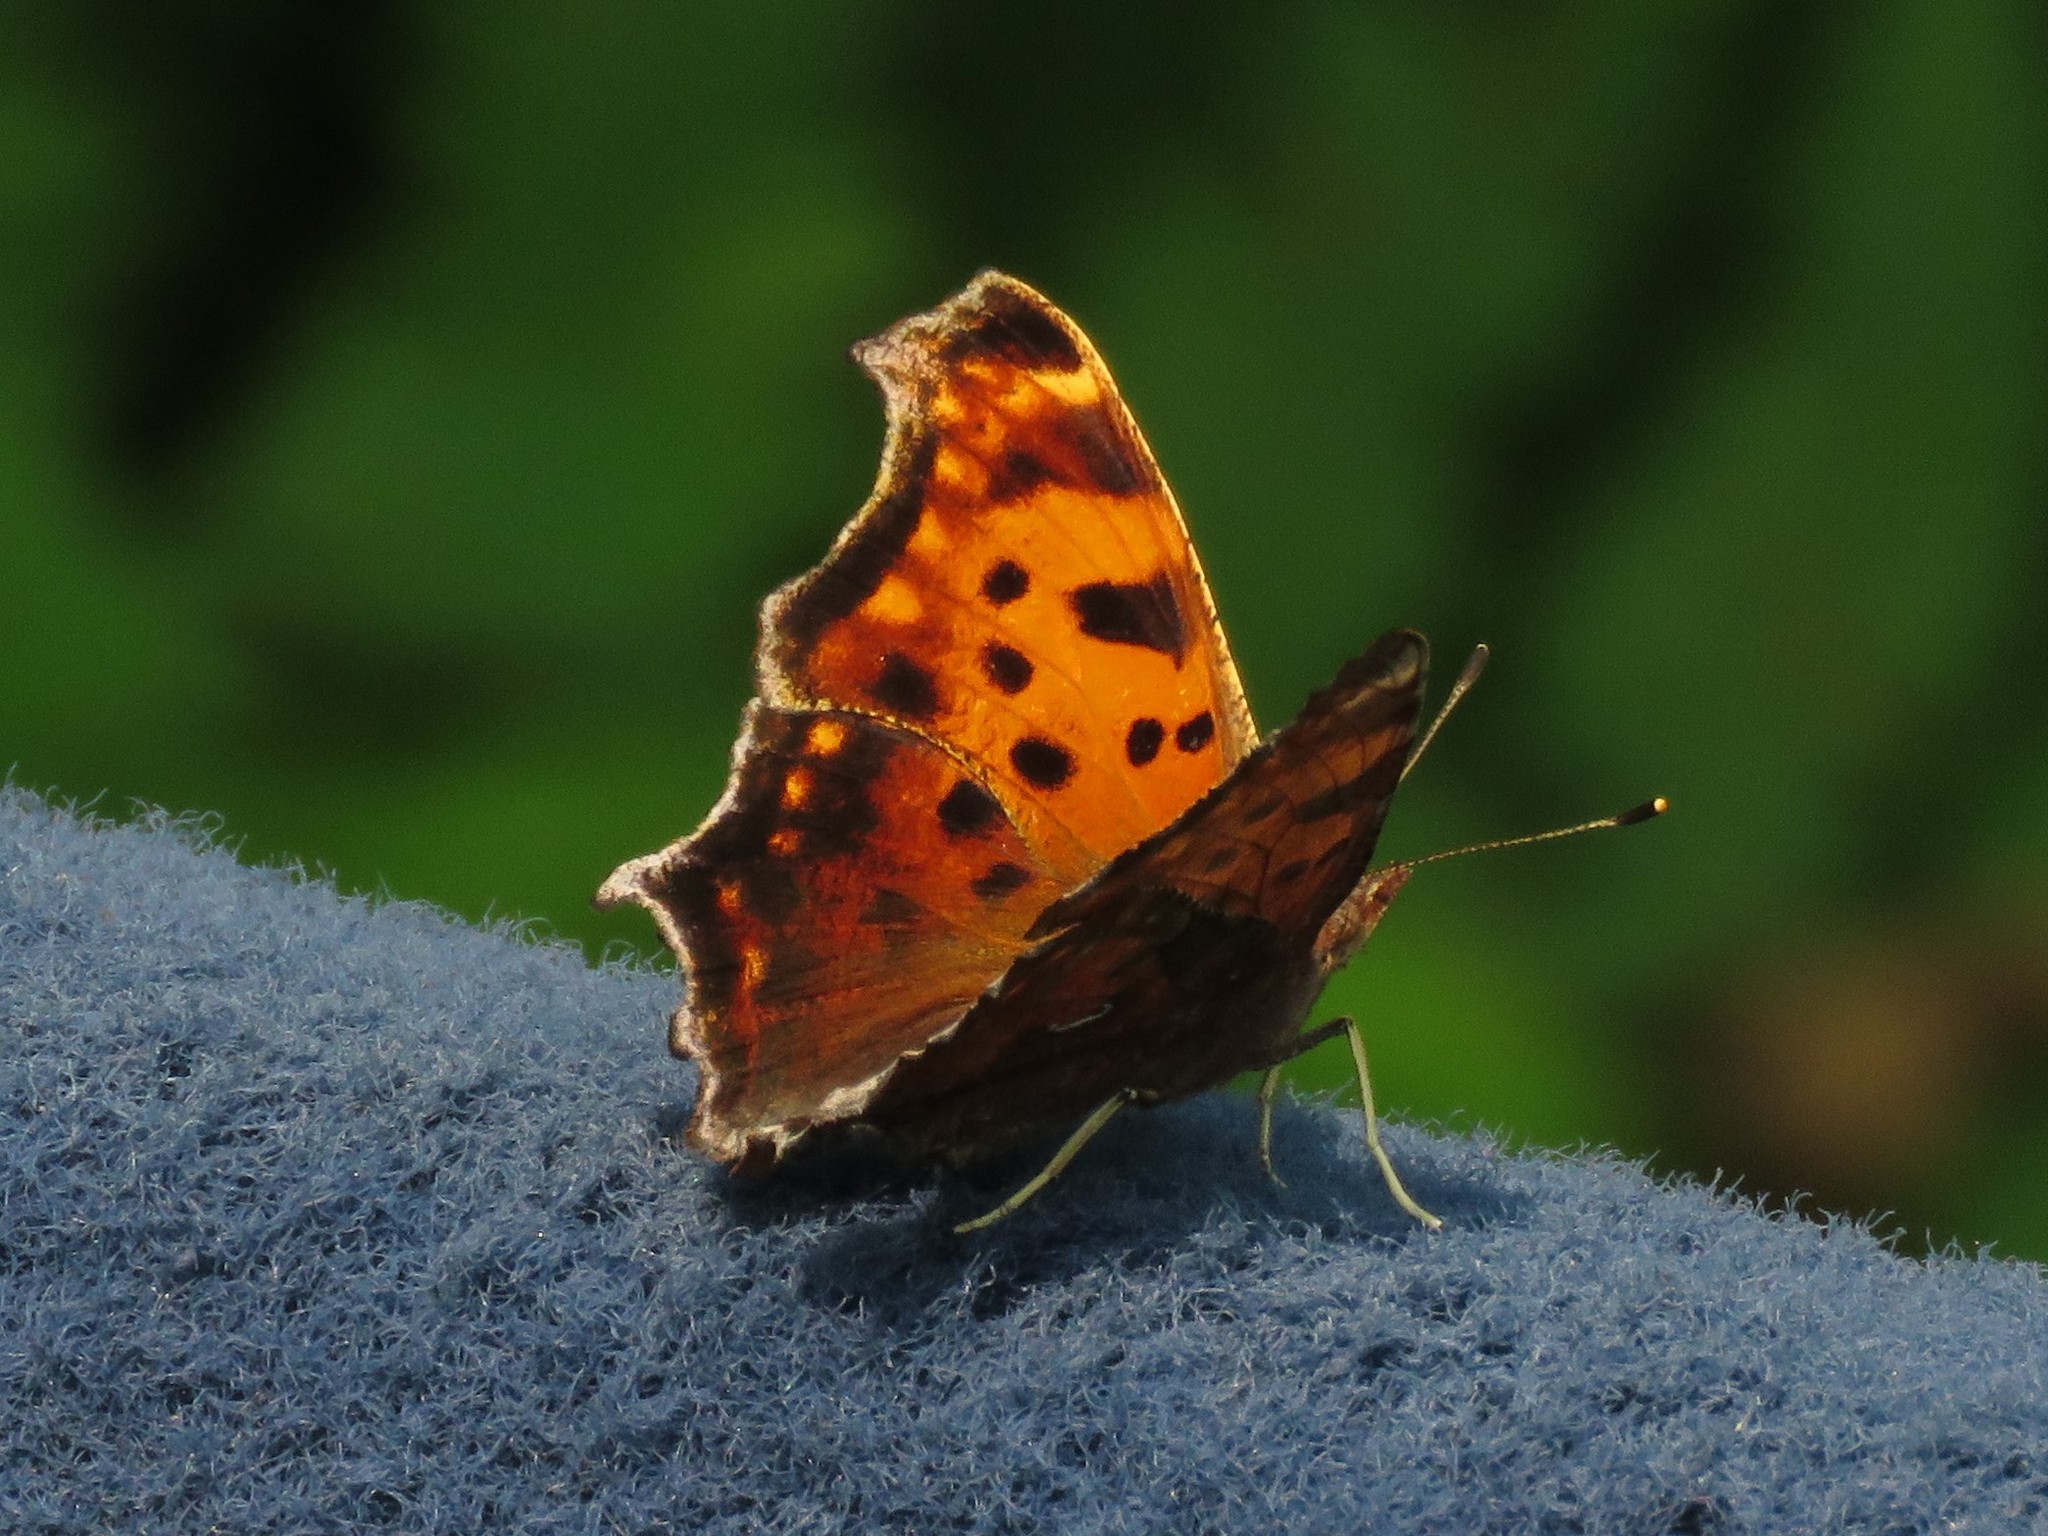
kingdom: Animalia
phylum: Arthropoda
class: Insecta
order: Lepidoptera
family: Nymphalidae
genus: Polygonia
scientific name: Polygonia comma
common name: Eastern comma
